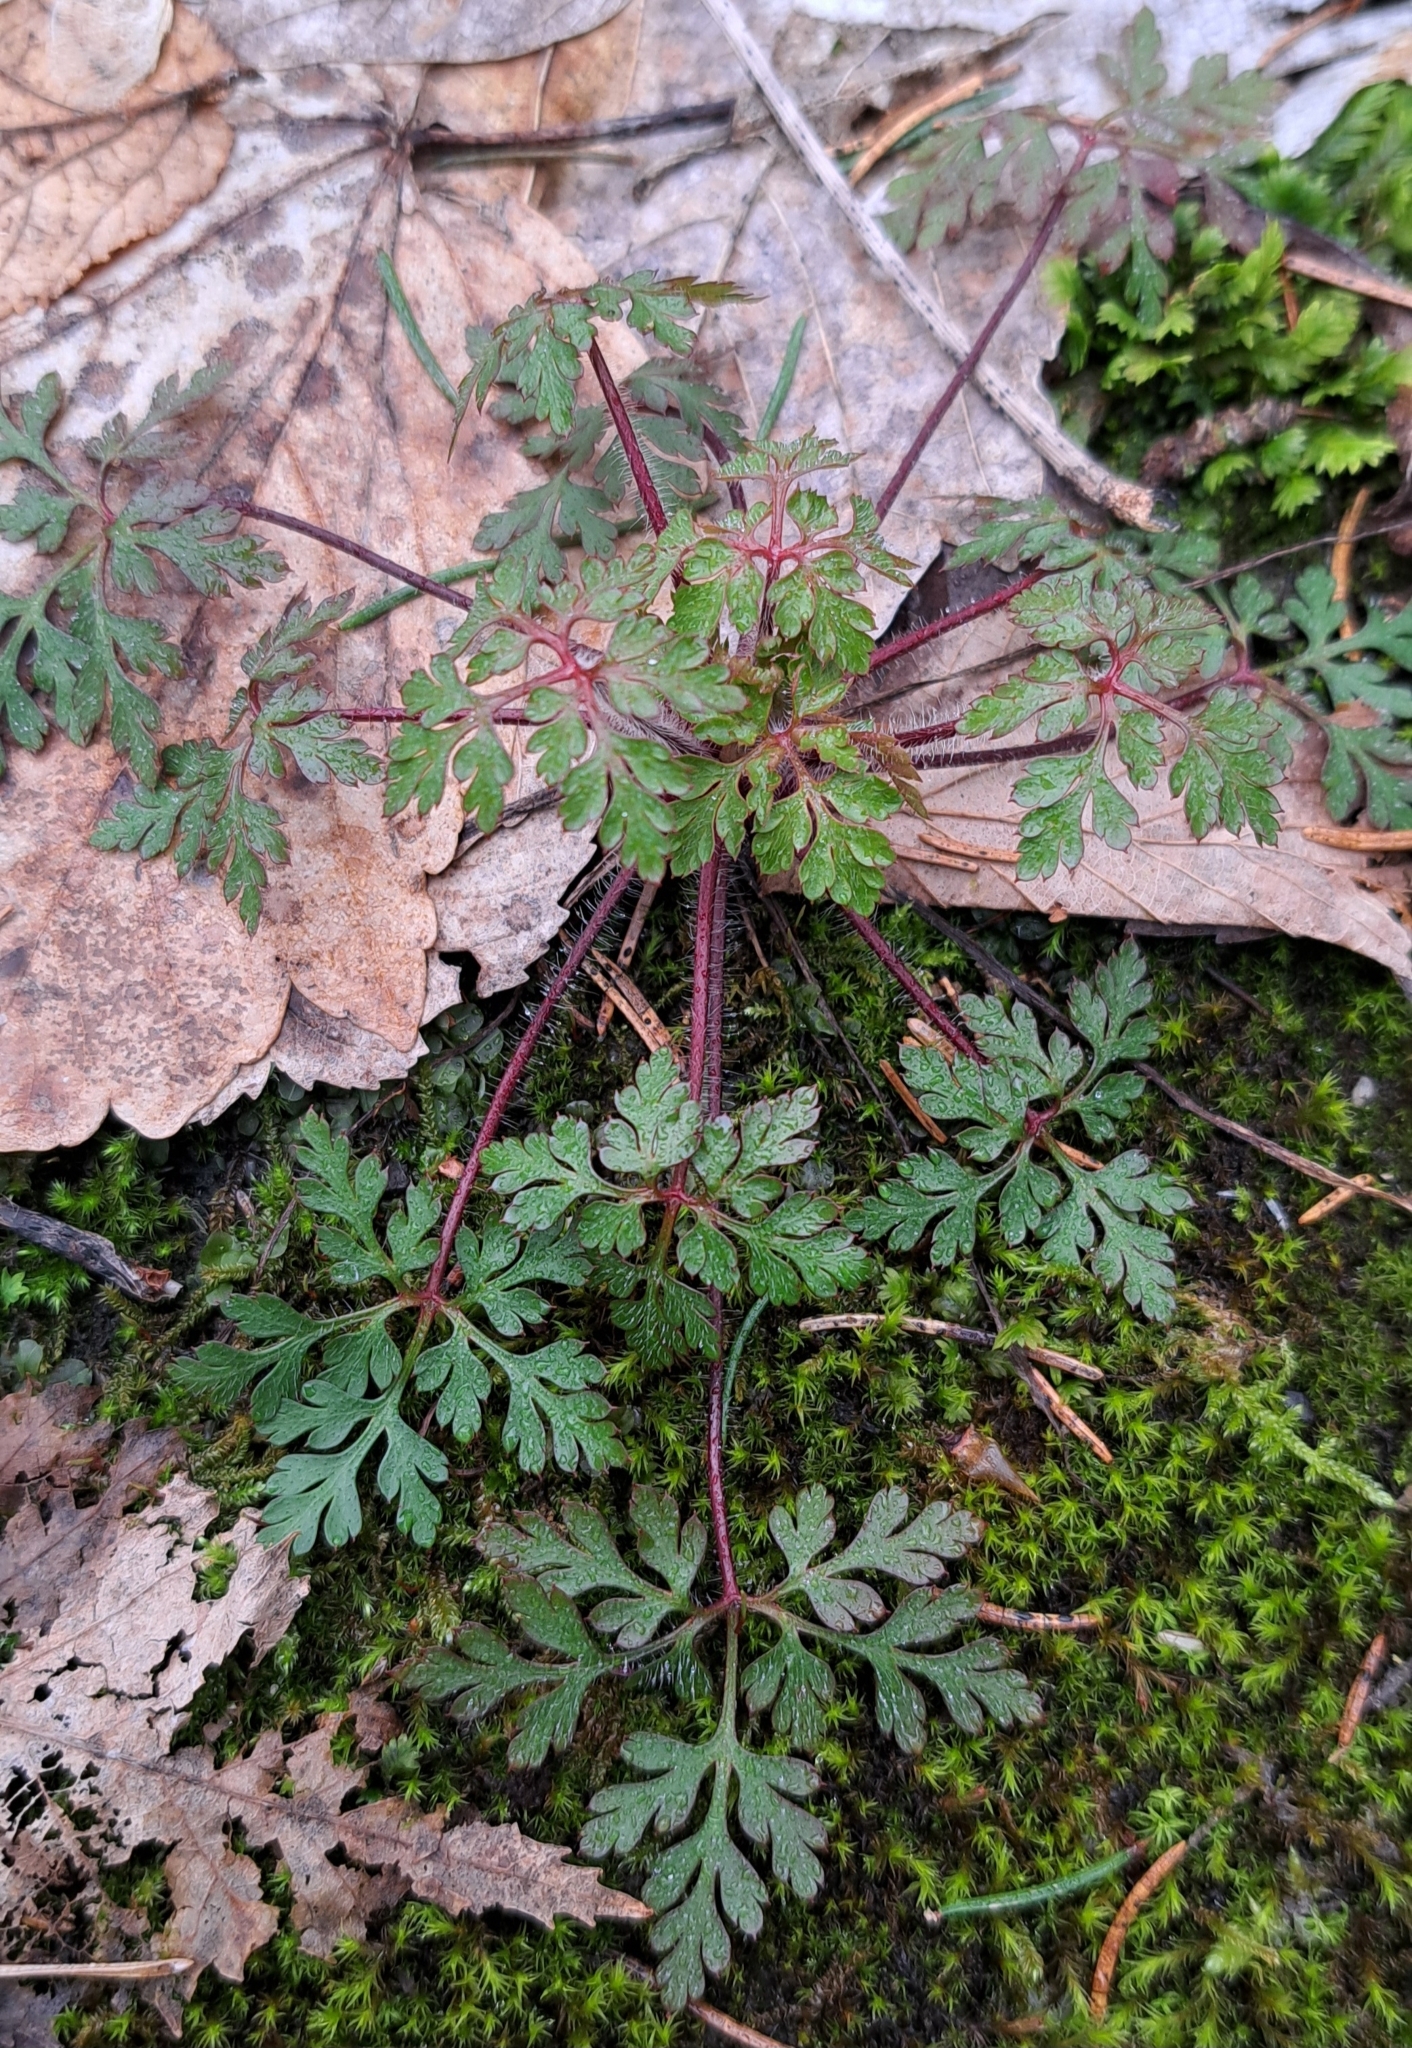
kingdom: Plantae
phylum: Tracheophyta
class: Magnoliopsida
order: Geraniales
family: Geraniaceae
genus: Geranium
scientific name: Geranium robertianum
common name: Herb-robert
